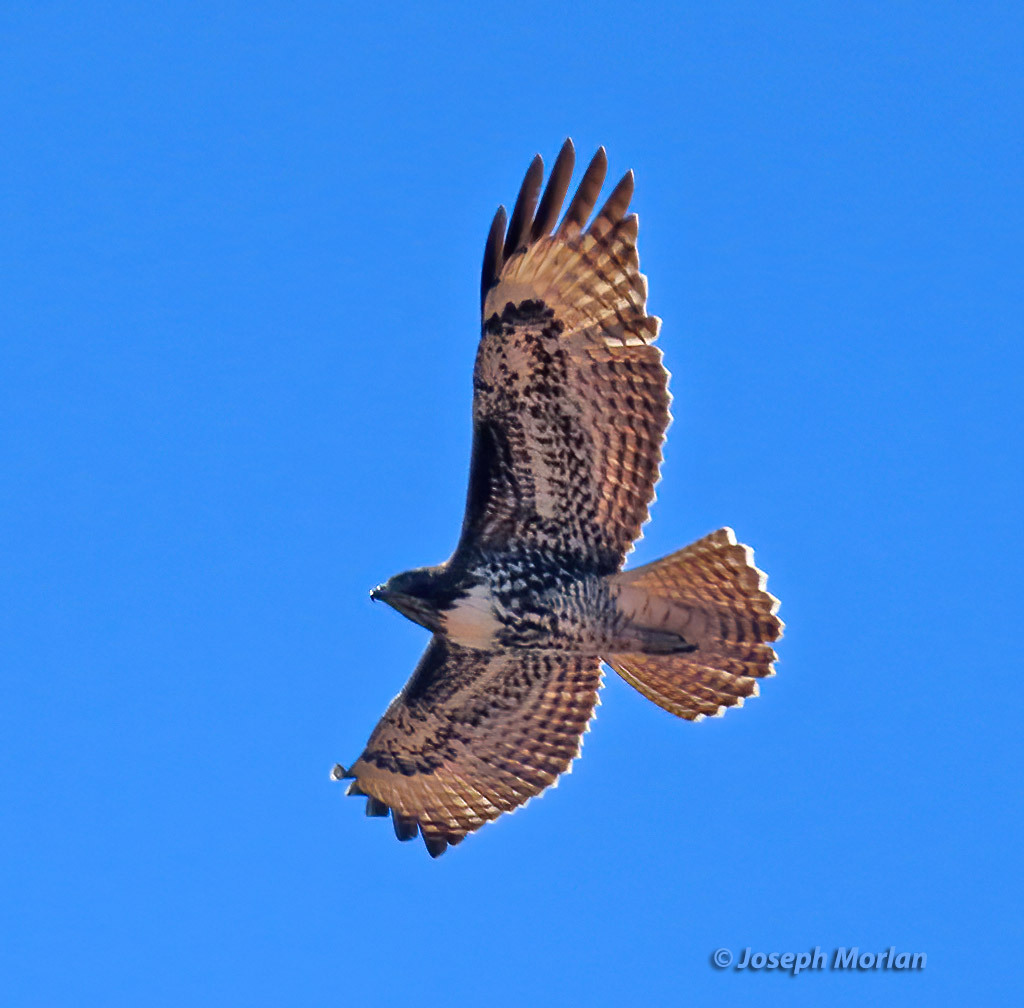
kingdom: Animalia
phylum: Chordata
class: Aves
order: Accipitriformes
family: Accipitridae
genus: Buteo
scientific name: Buteo jamaicensis
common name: Red-tailed hawk
